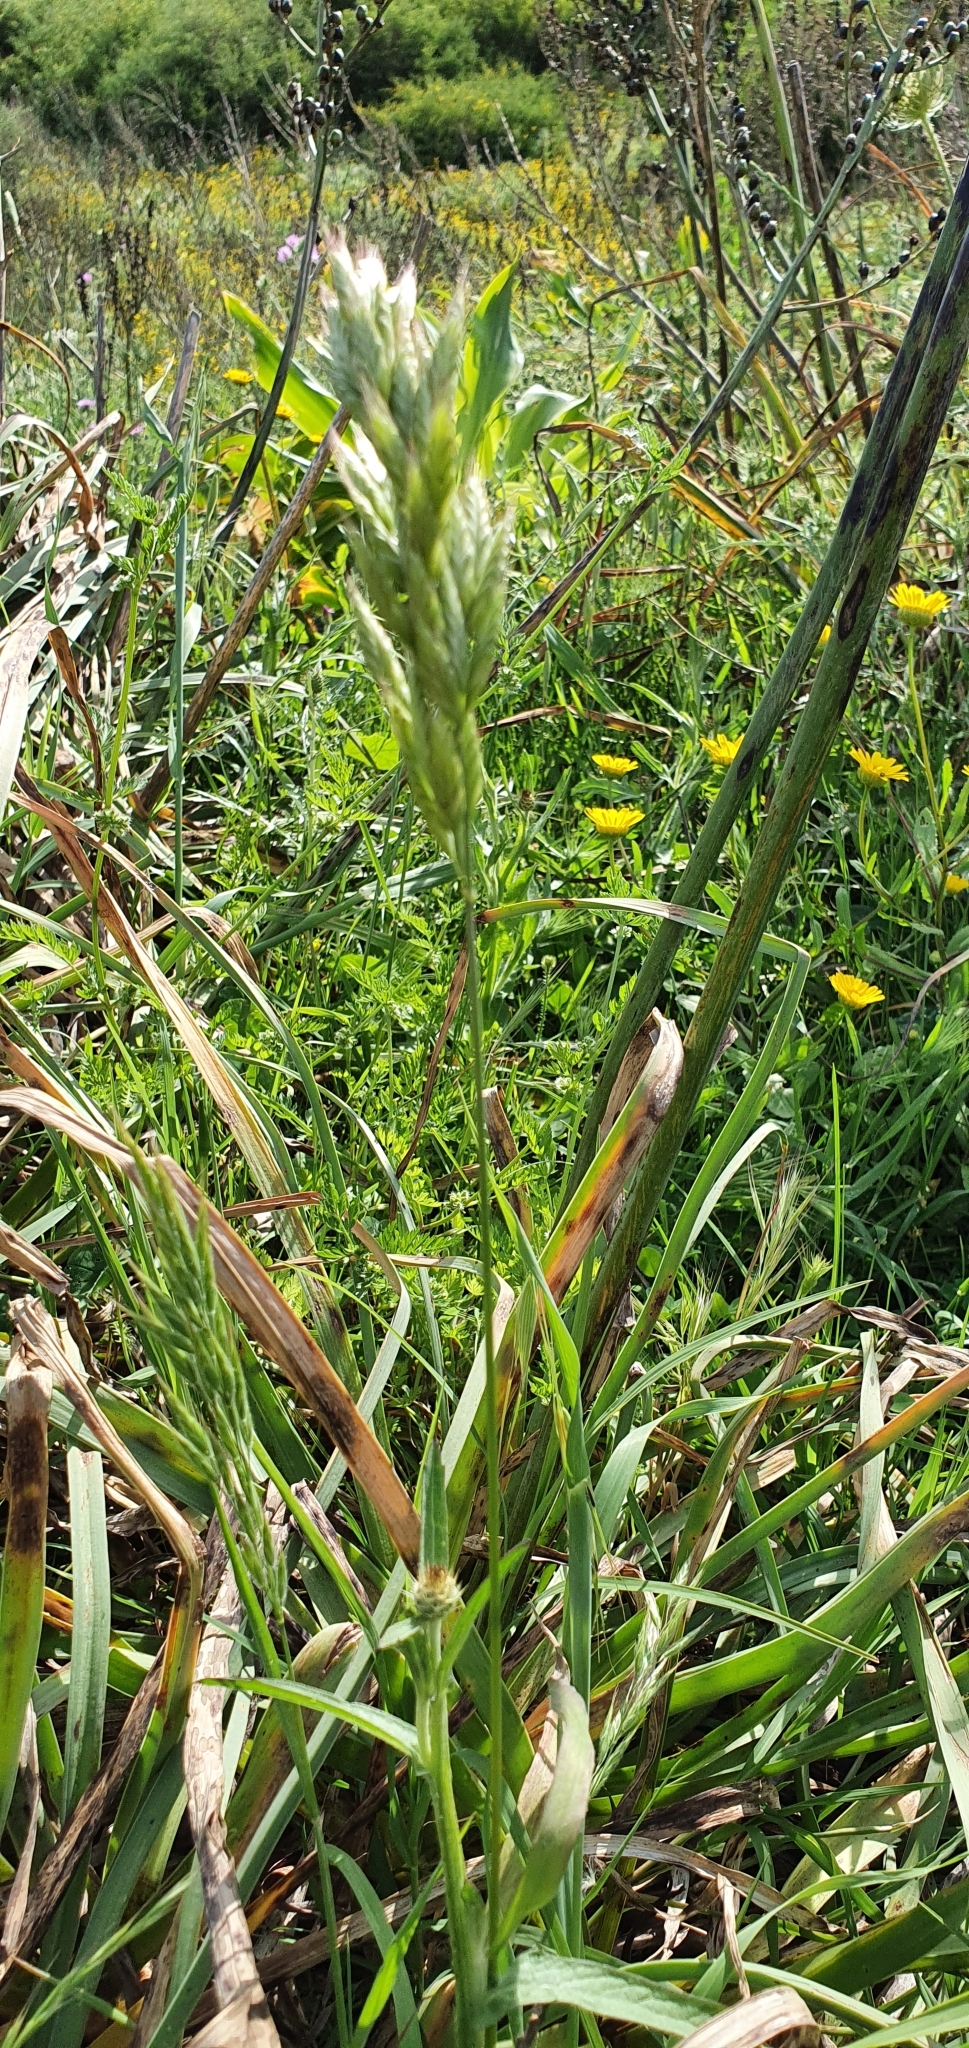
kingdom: Plantae
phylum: Tracheophyta
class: Liliopsida
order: Poales
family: Poaceae
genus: Bromus
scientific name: Bromus hordeaceus
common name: Soft brome
